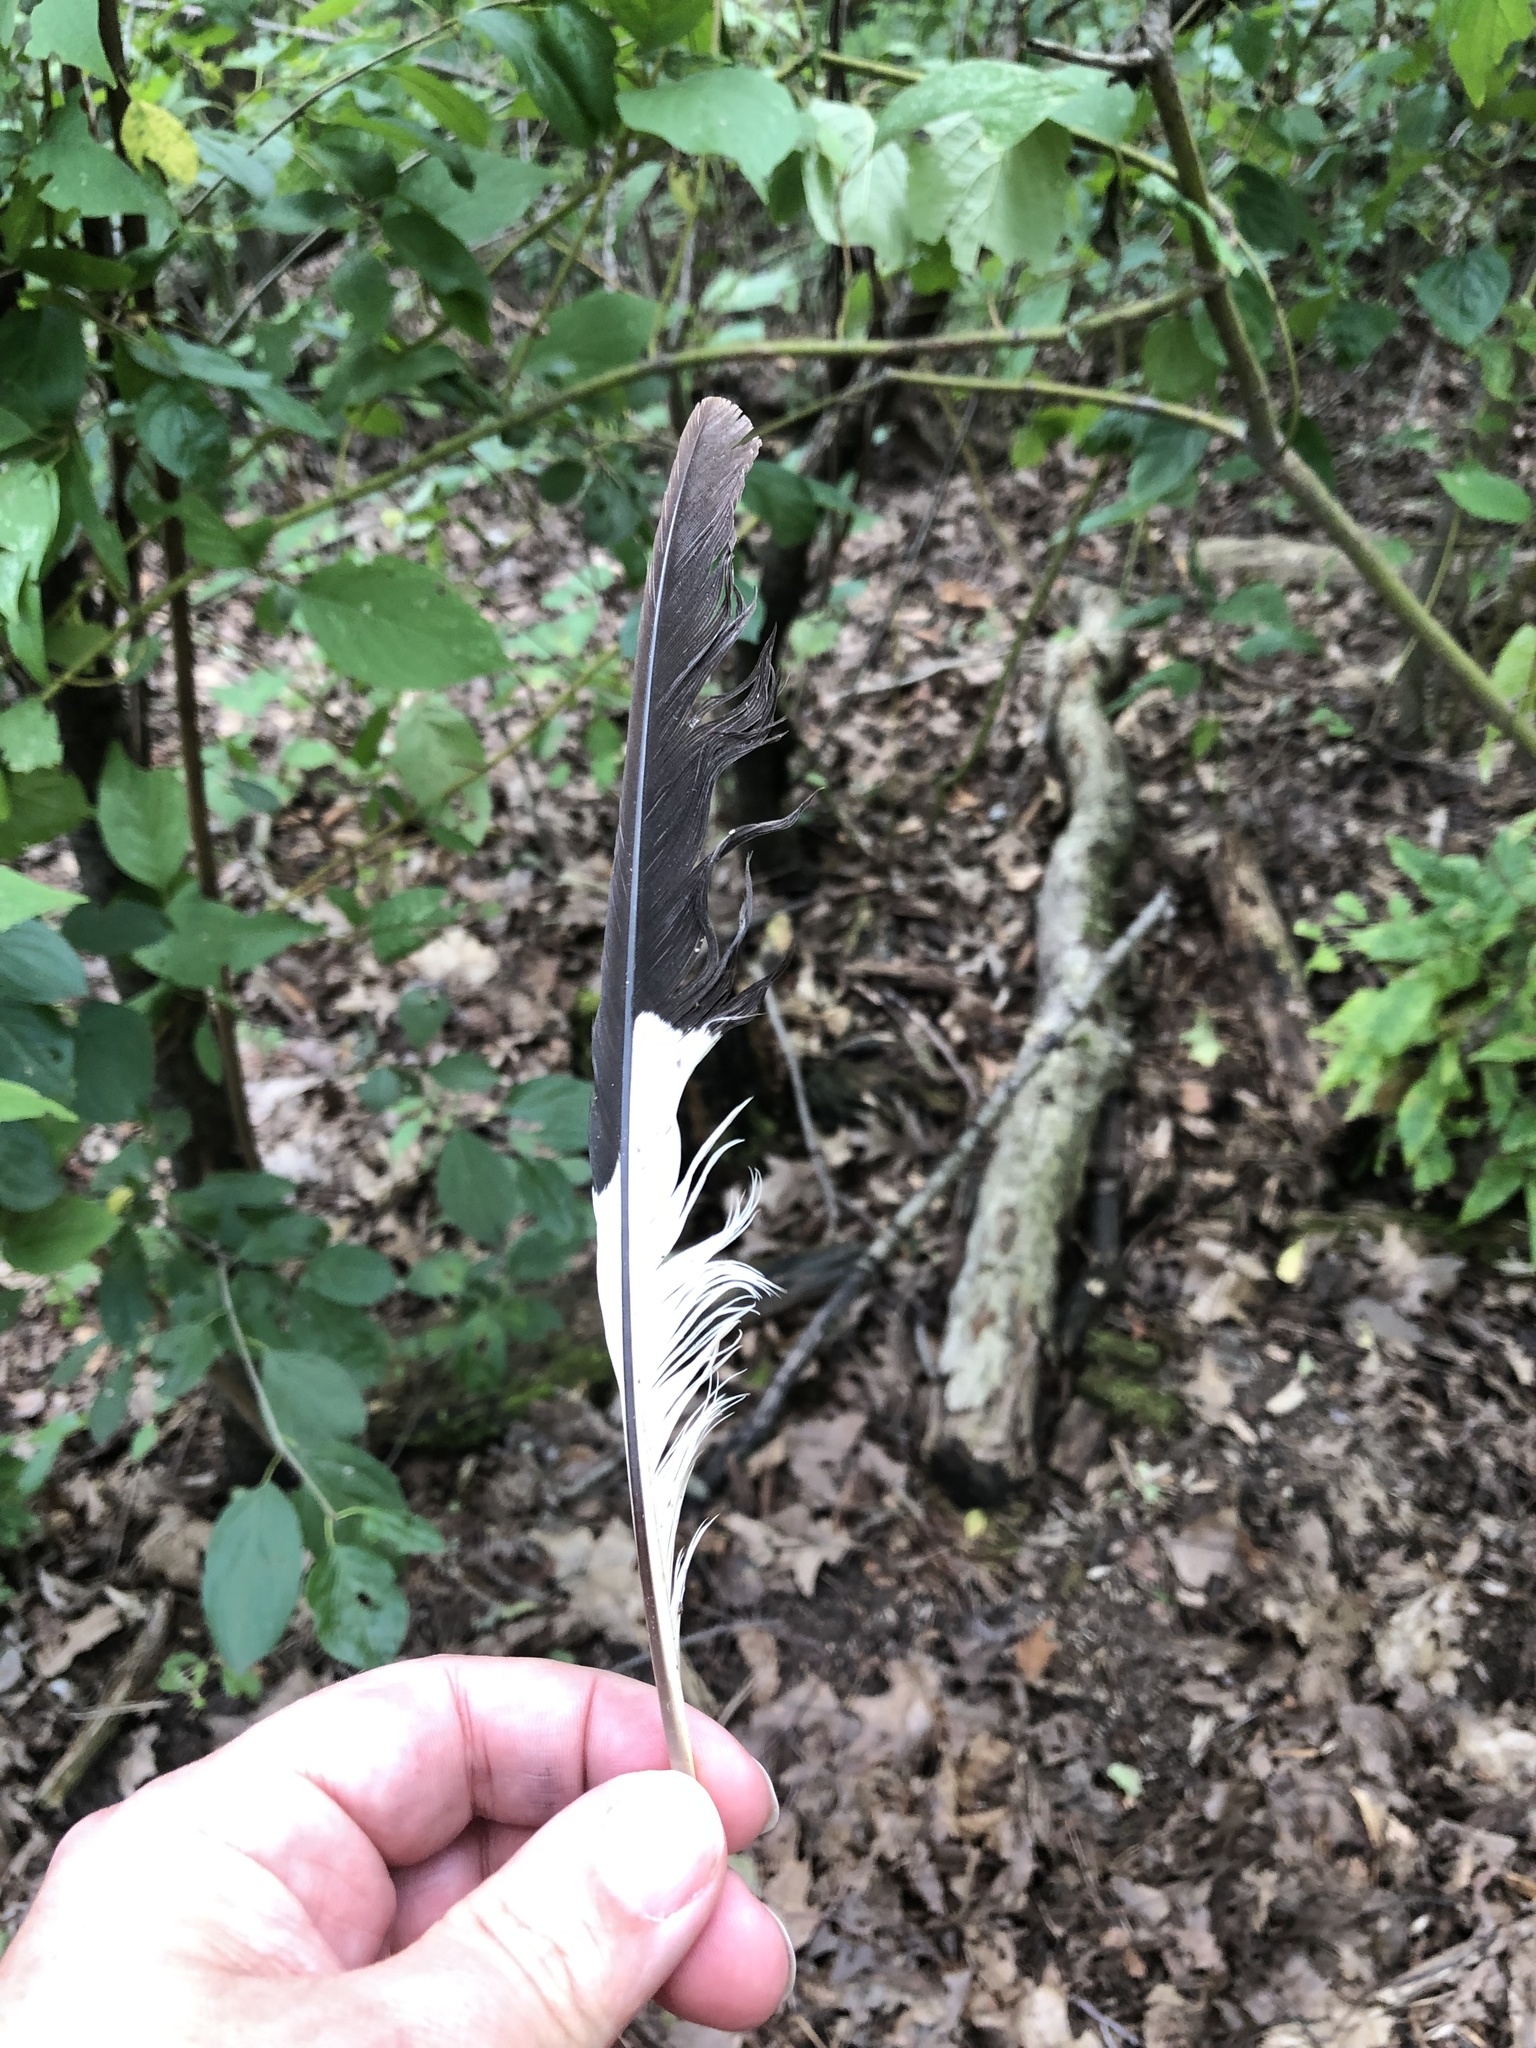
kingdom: Animalia
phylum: Chordata
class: Aves
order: Piciformes
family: Picidae
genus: Dryocopus
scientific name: Dryocopus pileatus
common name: Pileated woodpecker
